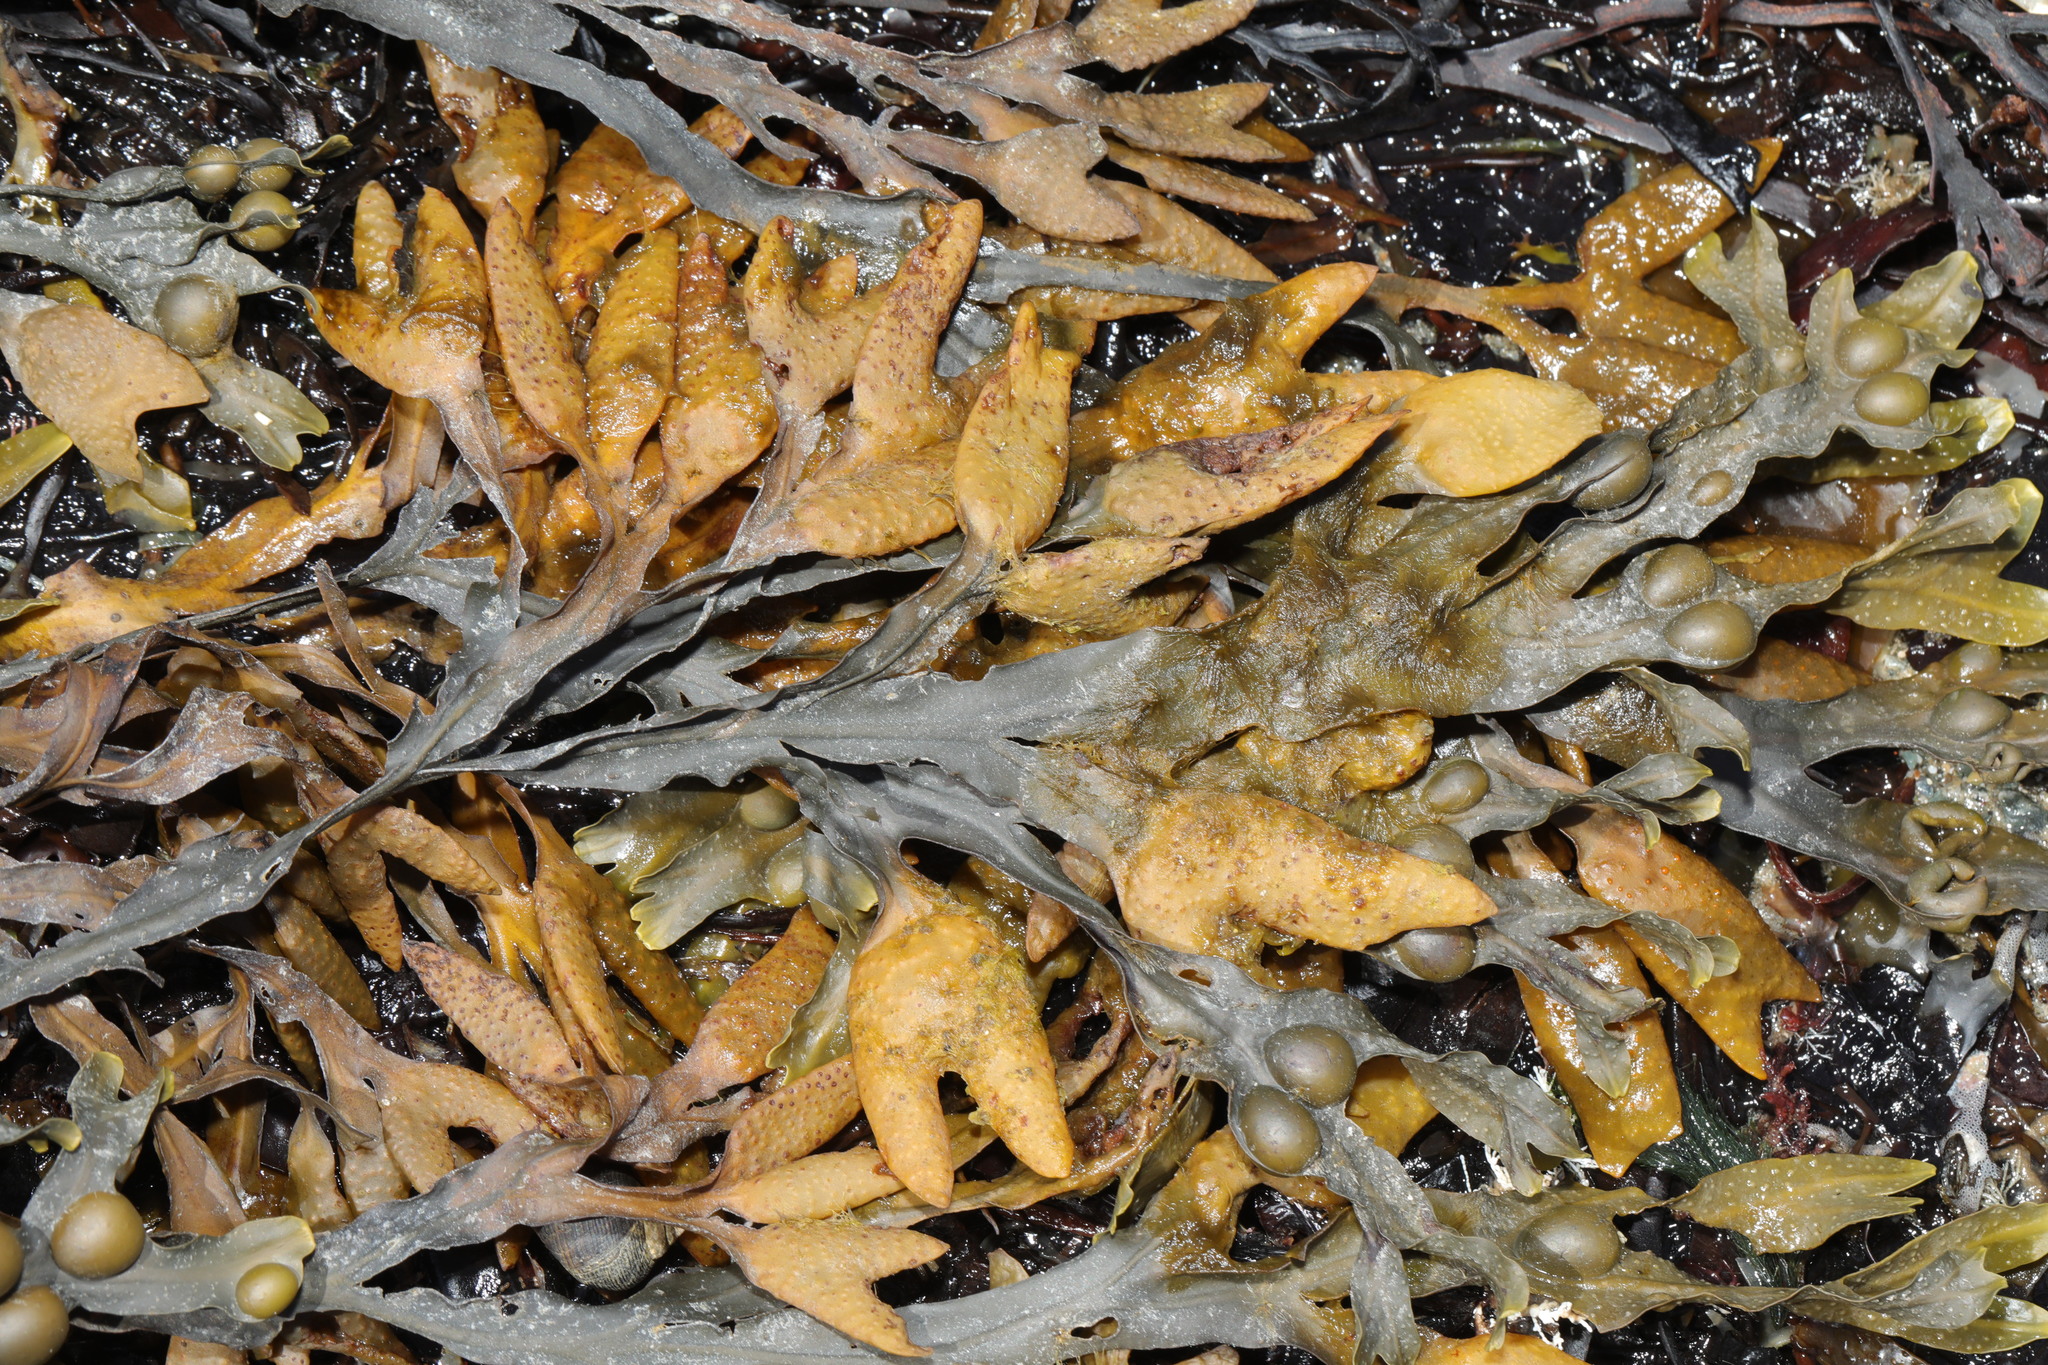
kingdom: Chromista
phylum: Ochrophyta
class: Phaeophyceae
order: Fucales
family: Fucaceae
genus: Fucus
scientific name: Fucus vesiculosus
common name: Bladder wrack
